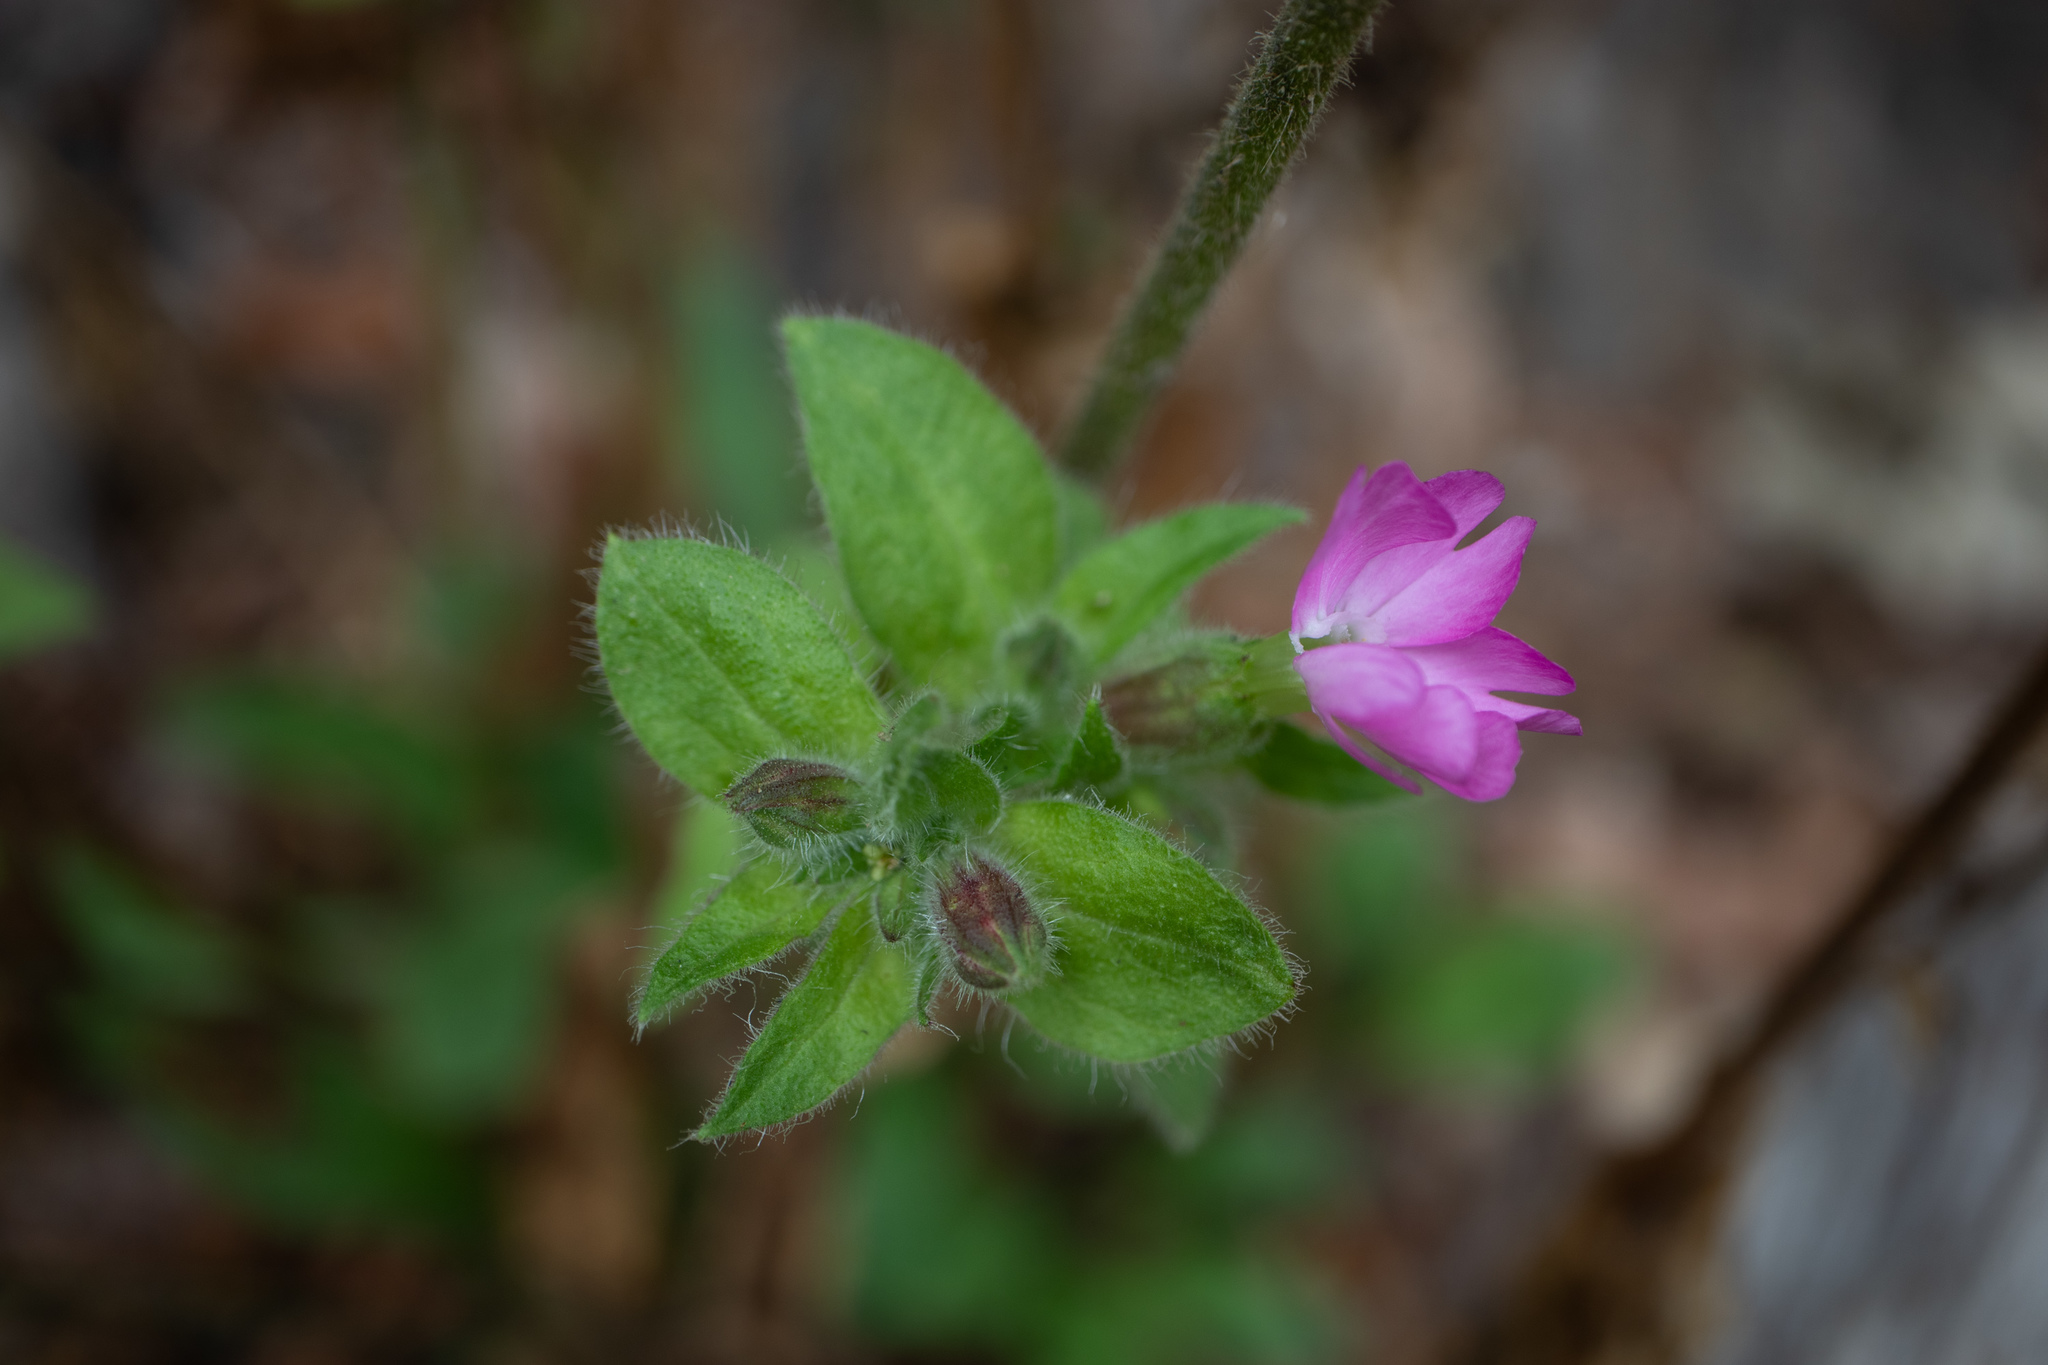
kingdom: Plantae
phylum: Tracheophyta
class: Magnoliopsida
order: Caryophyllales
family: Caryophyllaceae
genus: Silene
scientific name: Silene dioica
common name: Red campion
